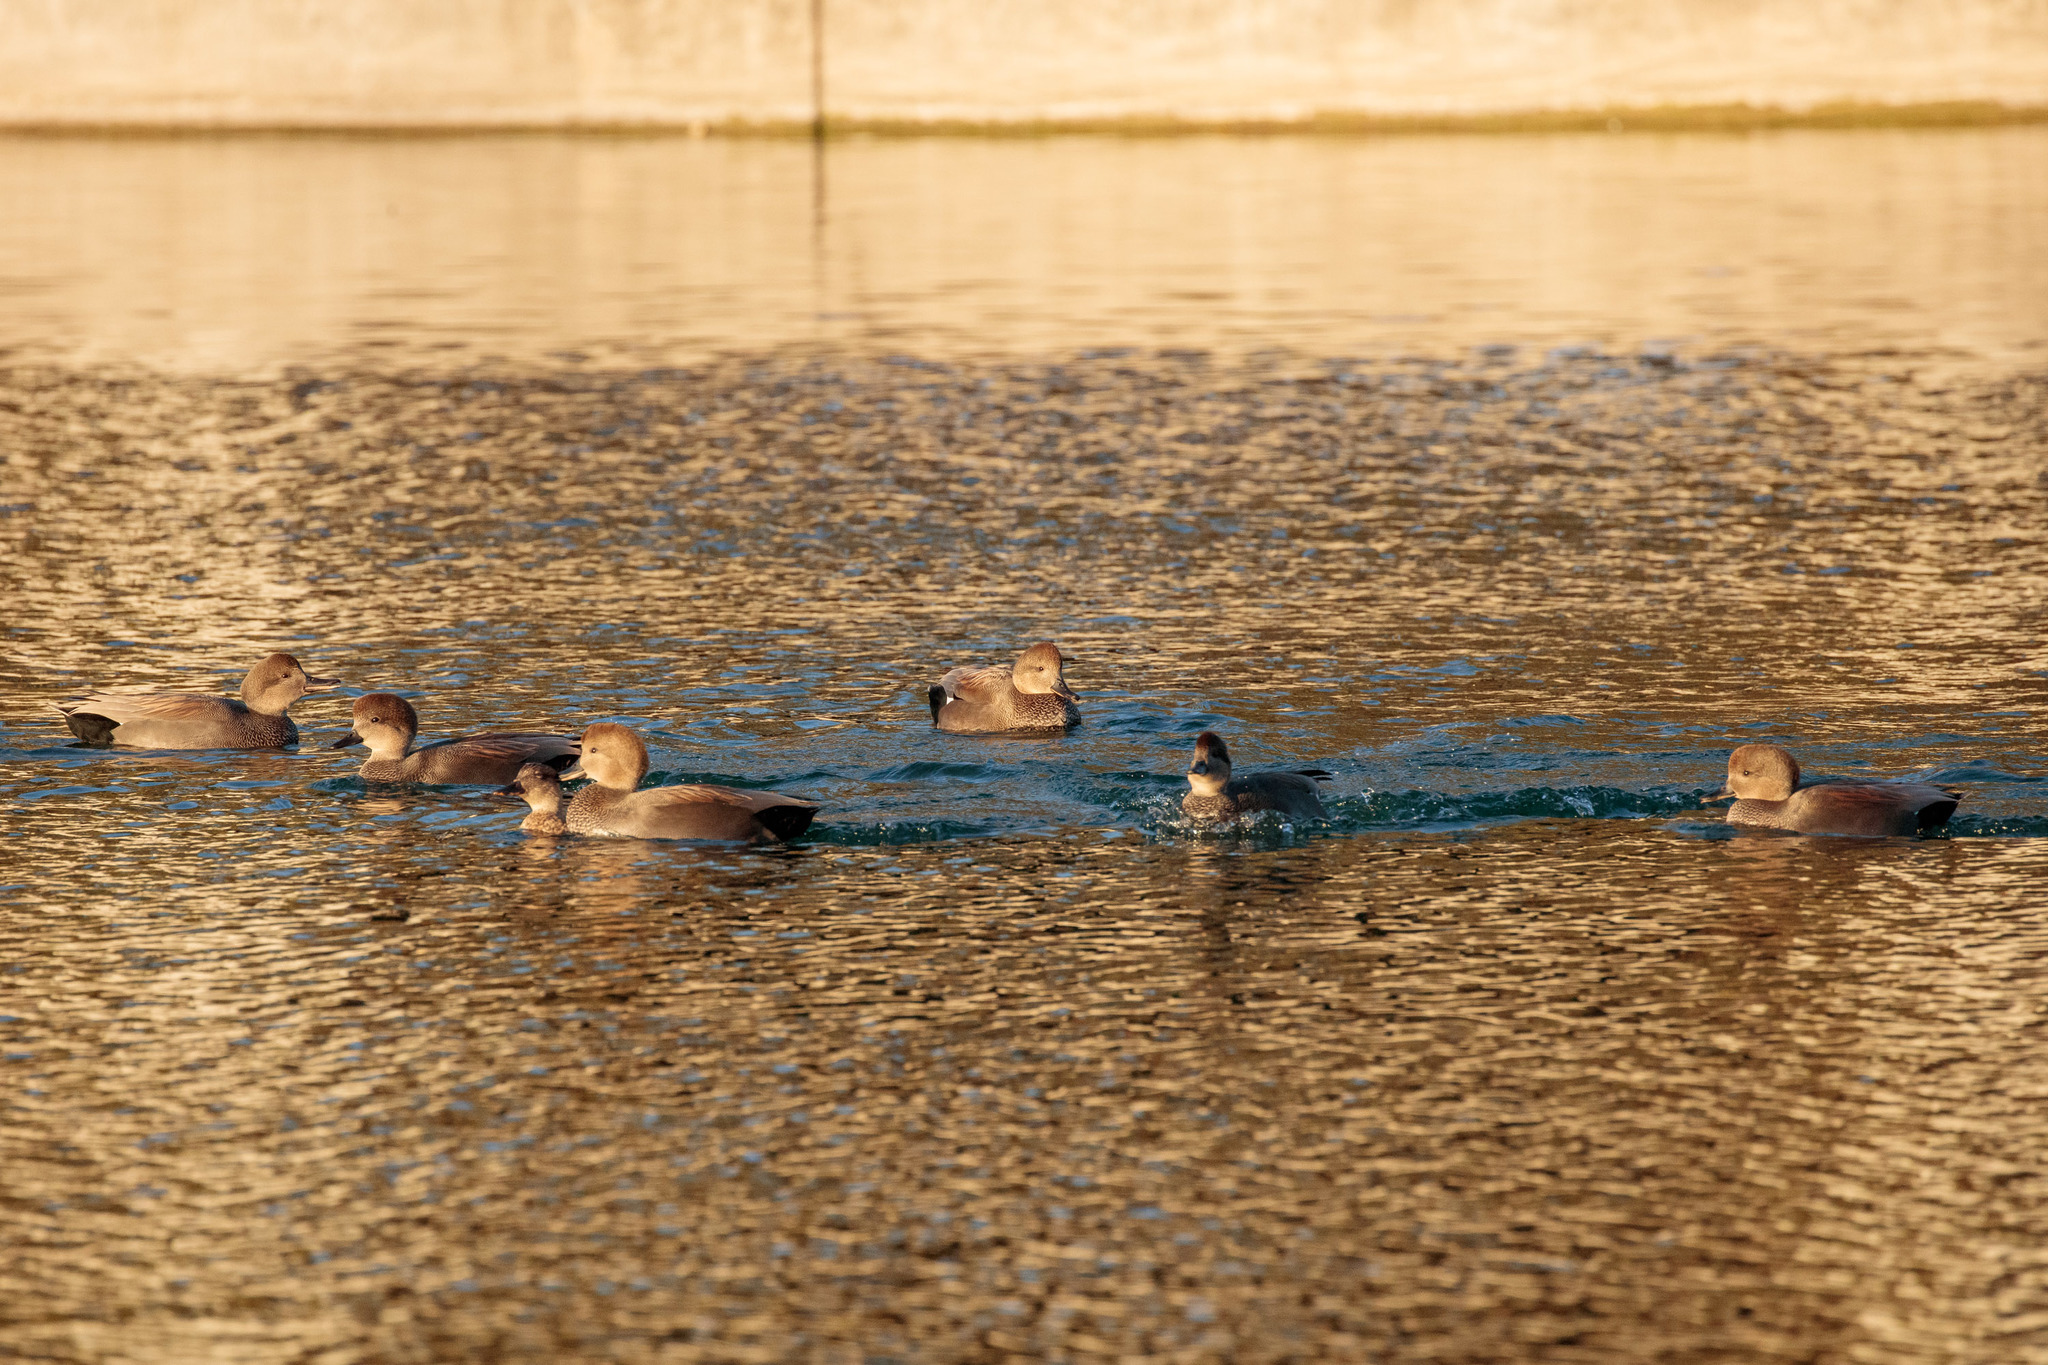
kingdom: Animalia
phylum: Chordata
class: Aves
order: Anseriformes
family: Anatidae
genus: Mareca
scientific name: Mareca strepera
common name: Gadwall
